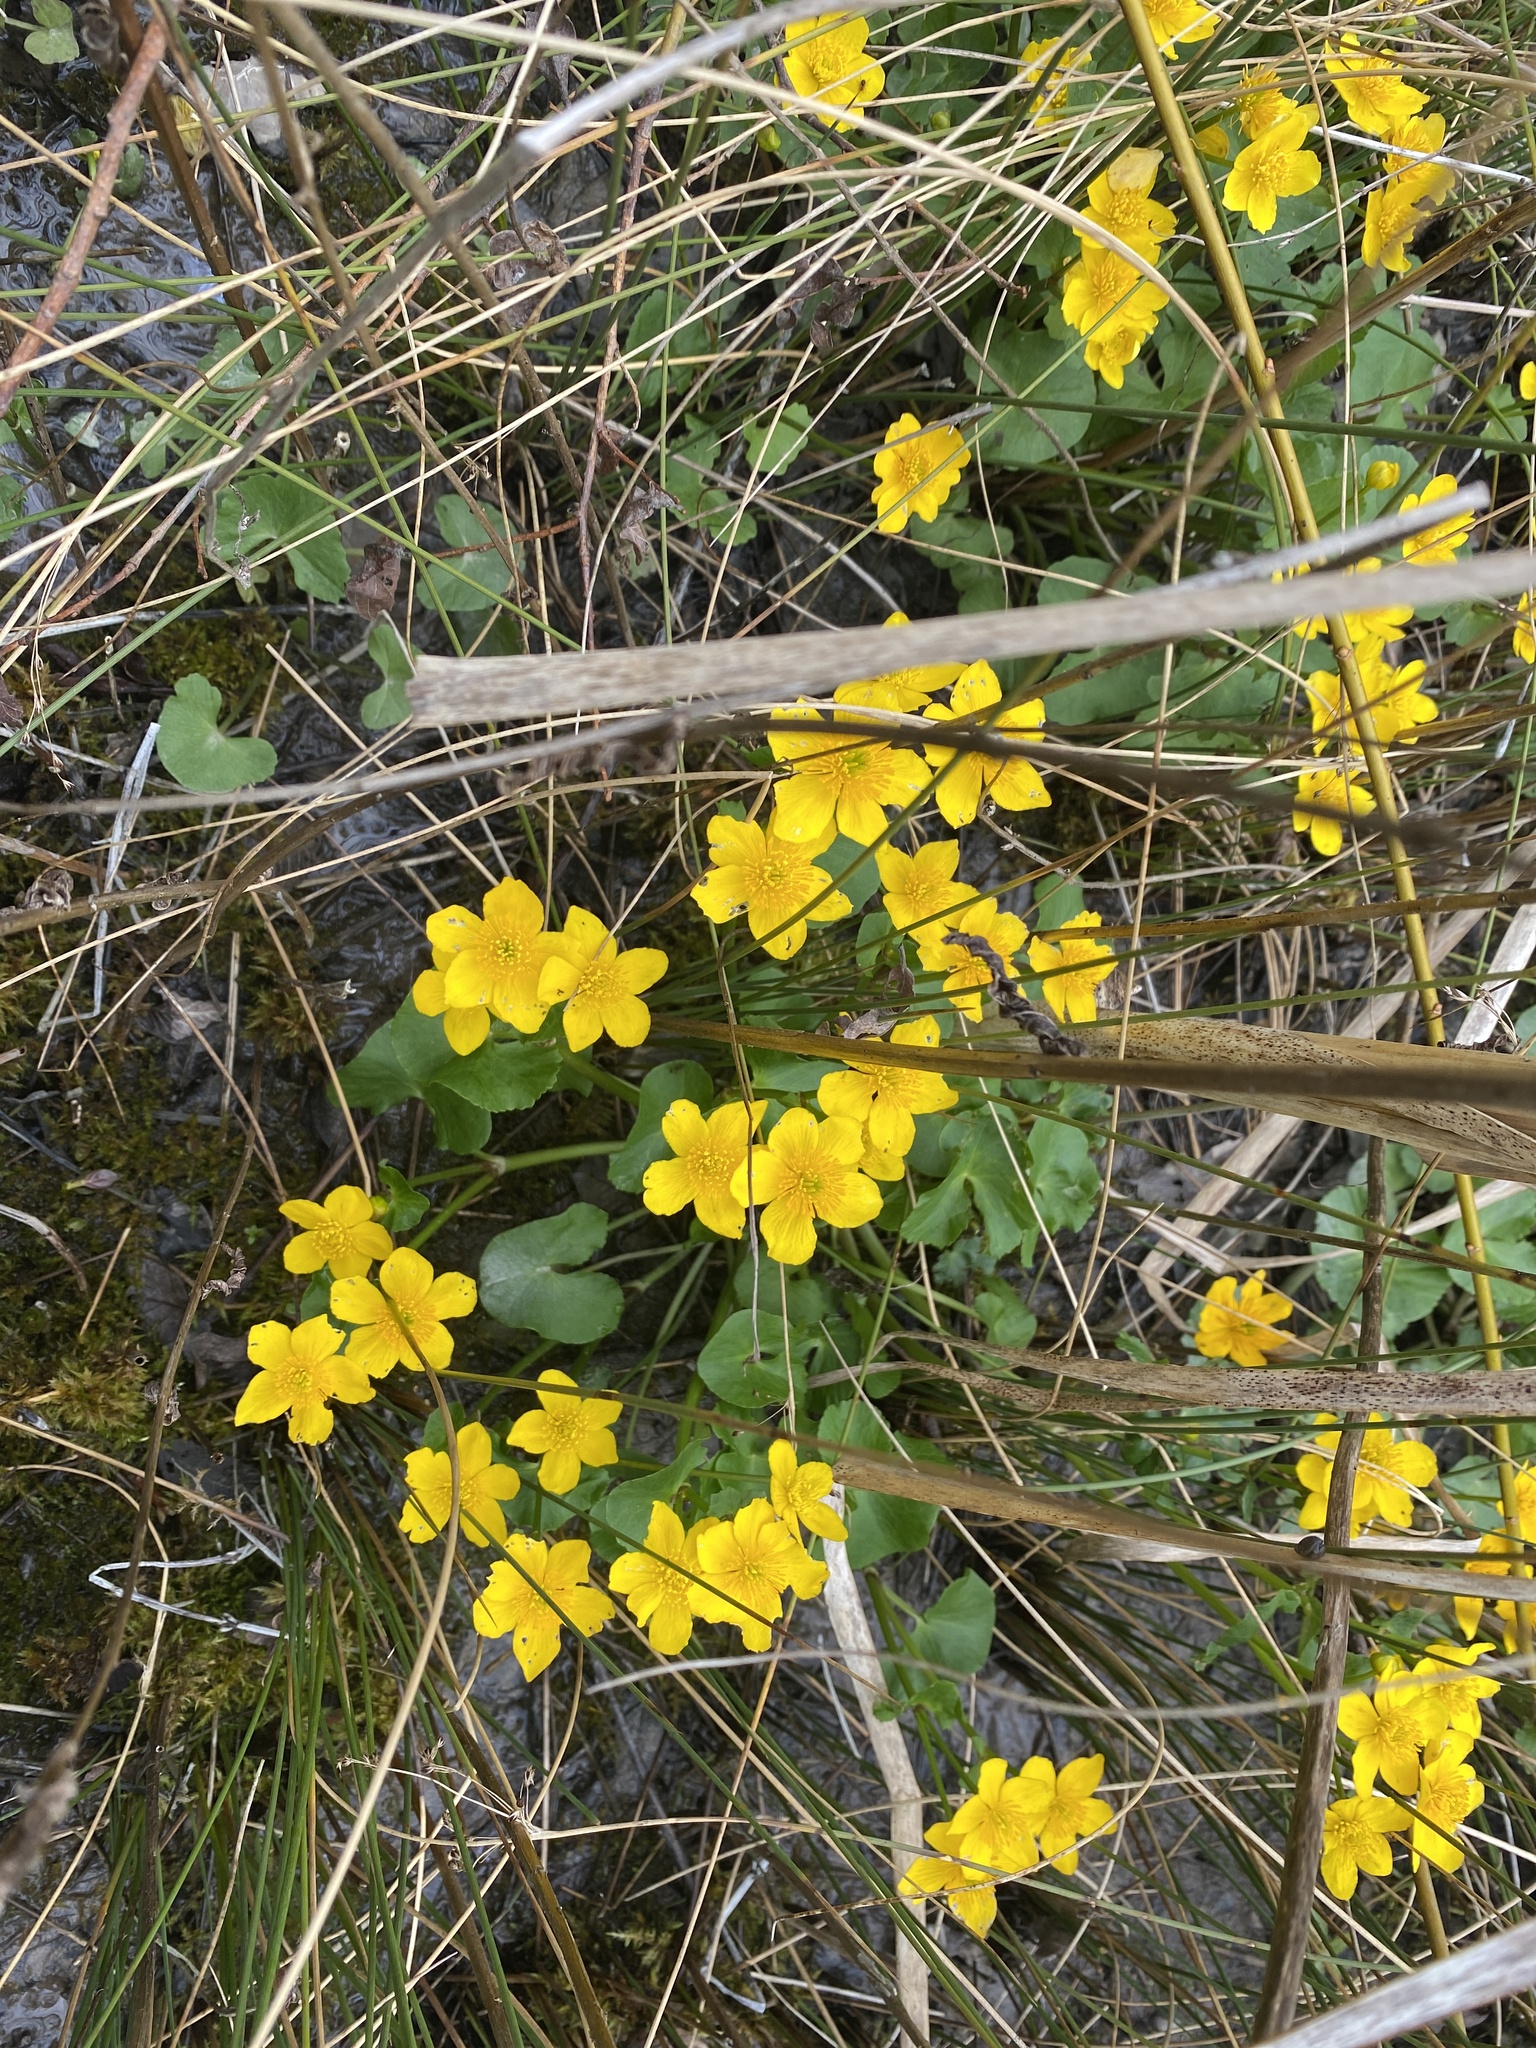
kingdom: Plantae
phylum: Tracheophyta
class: Magnoliopsida
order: Ranunculales
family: Ranunculaceae
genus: Caltha
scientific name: Caltha palustris
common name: Marsh marigold
